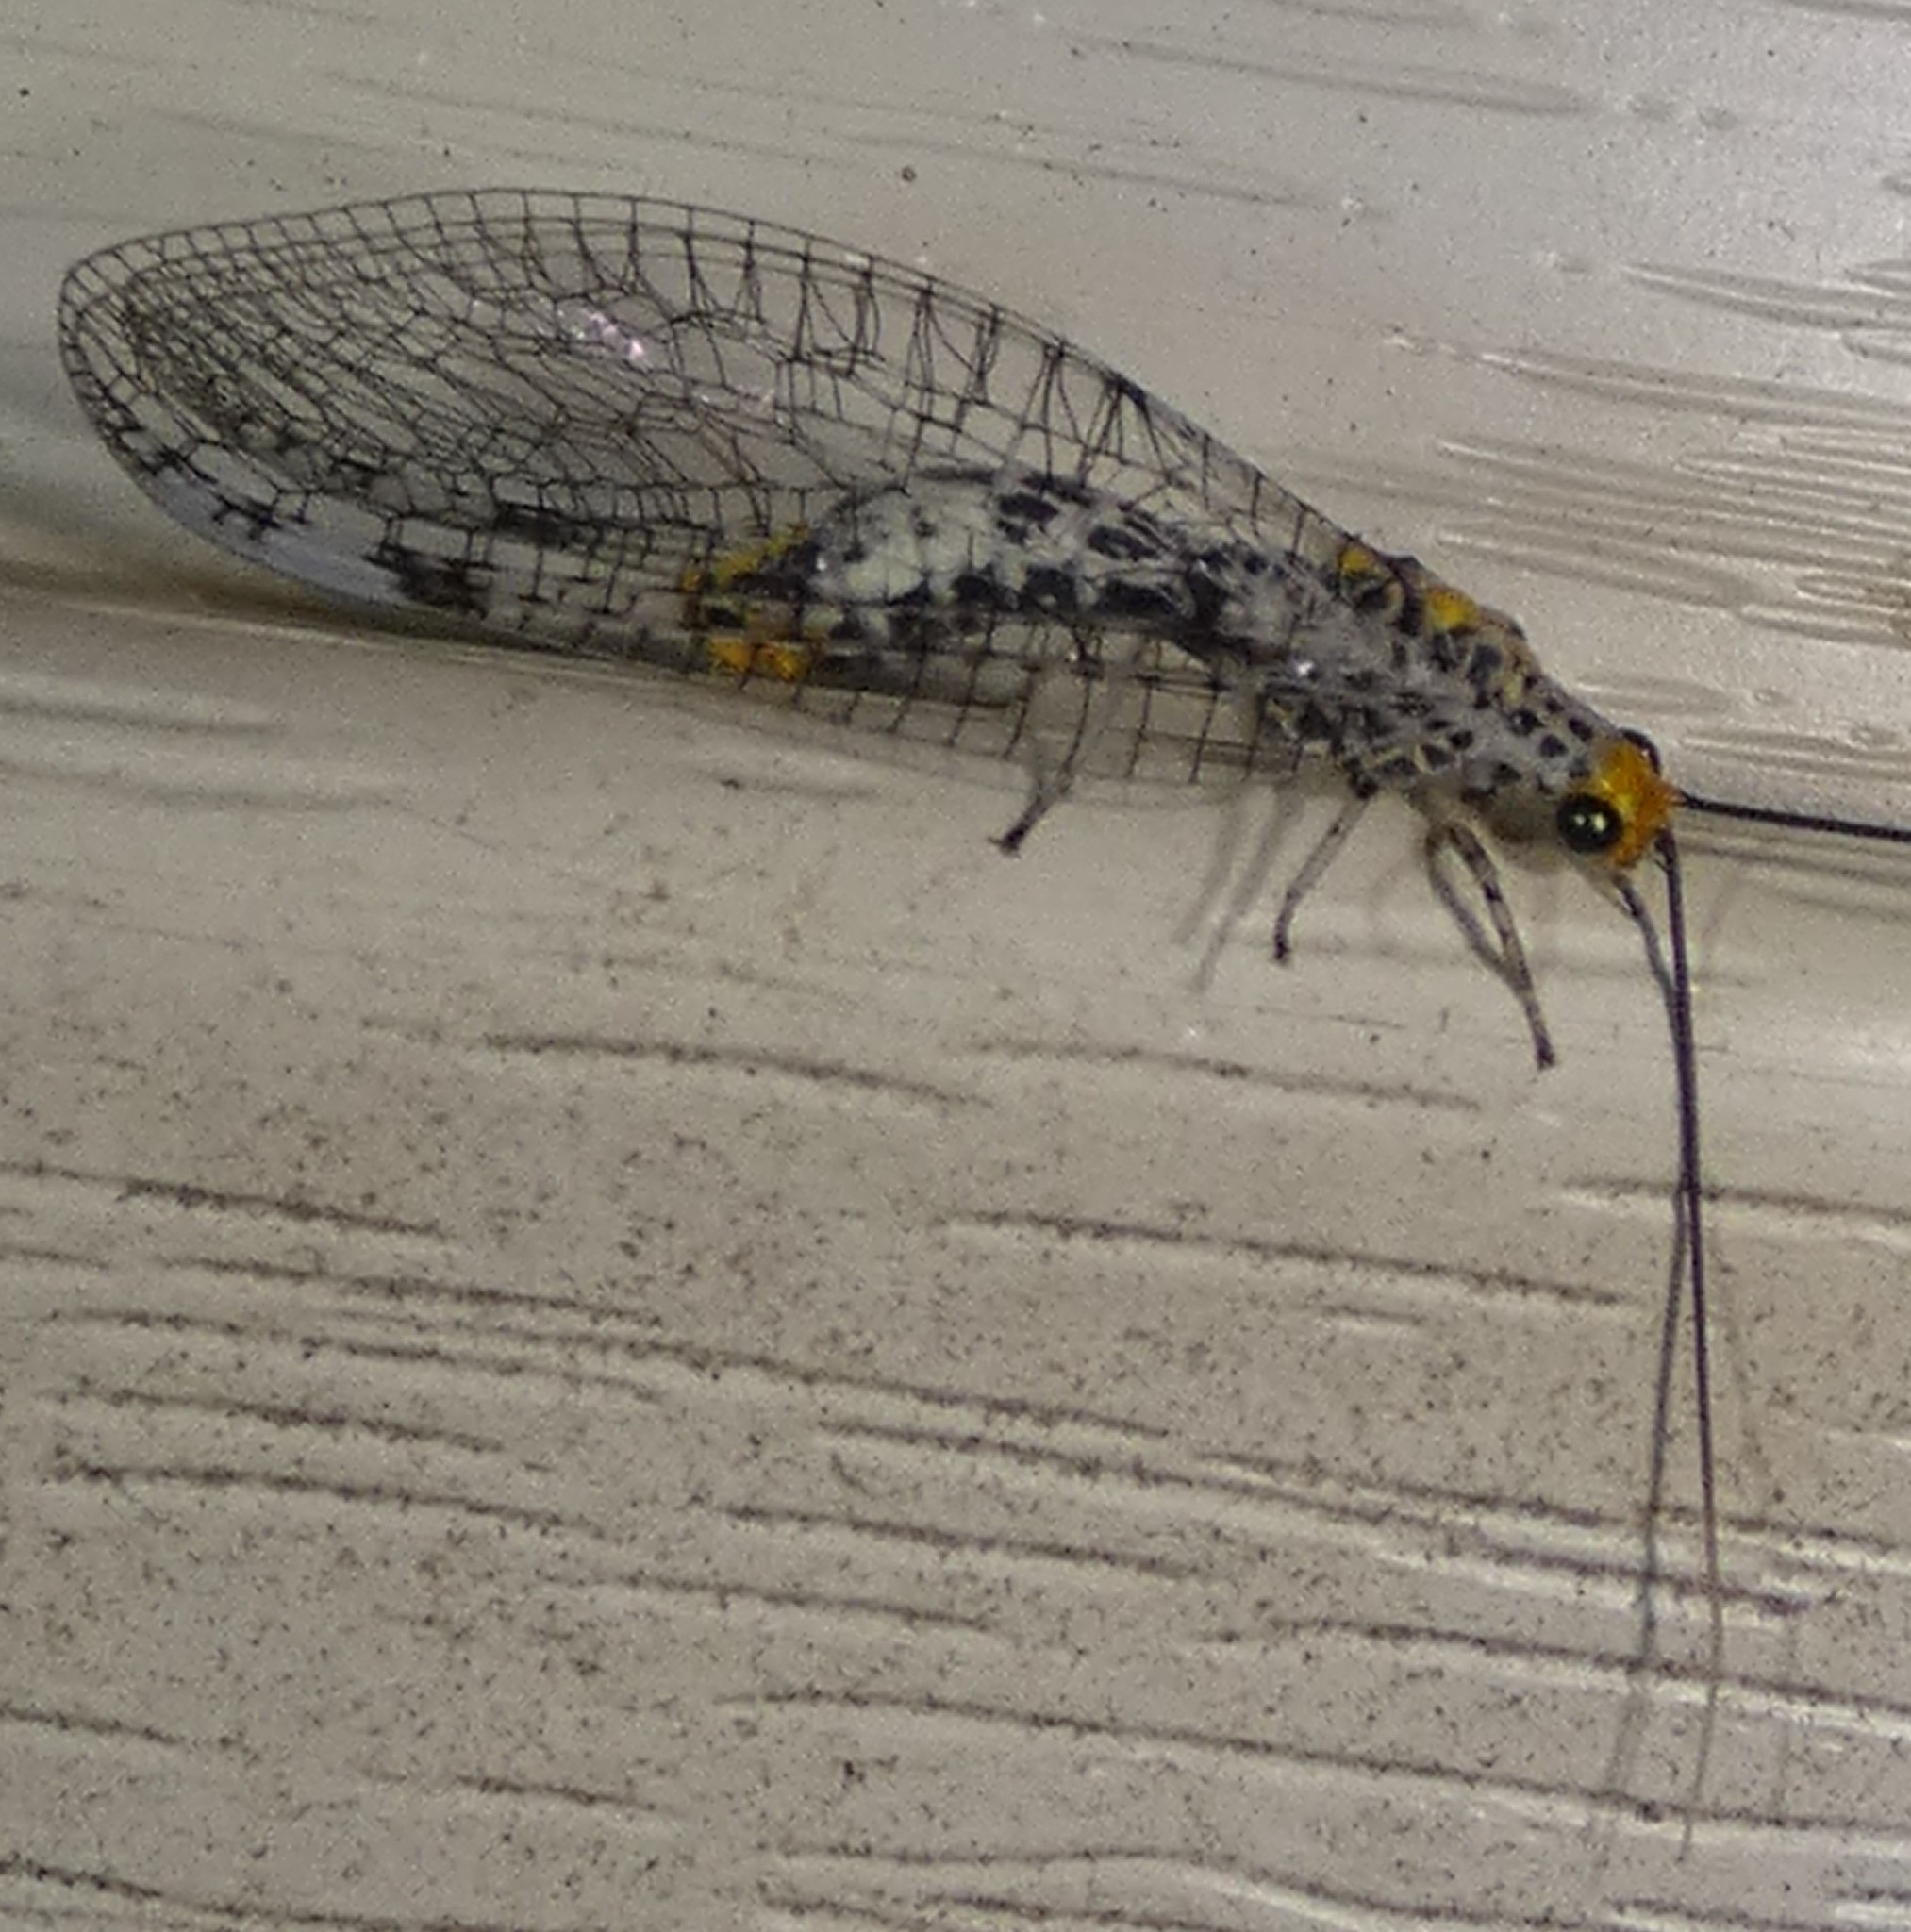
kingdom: Animalia
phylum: Arthropoda
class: Insecta
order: Neuroptera
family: Chrysopidae
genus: Abachrysa
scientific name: Abachrysa eureka
